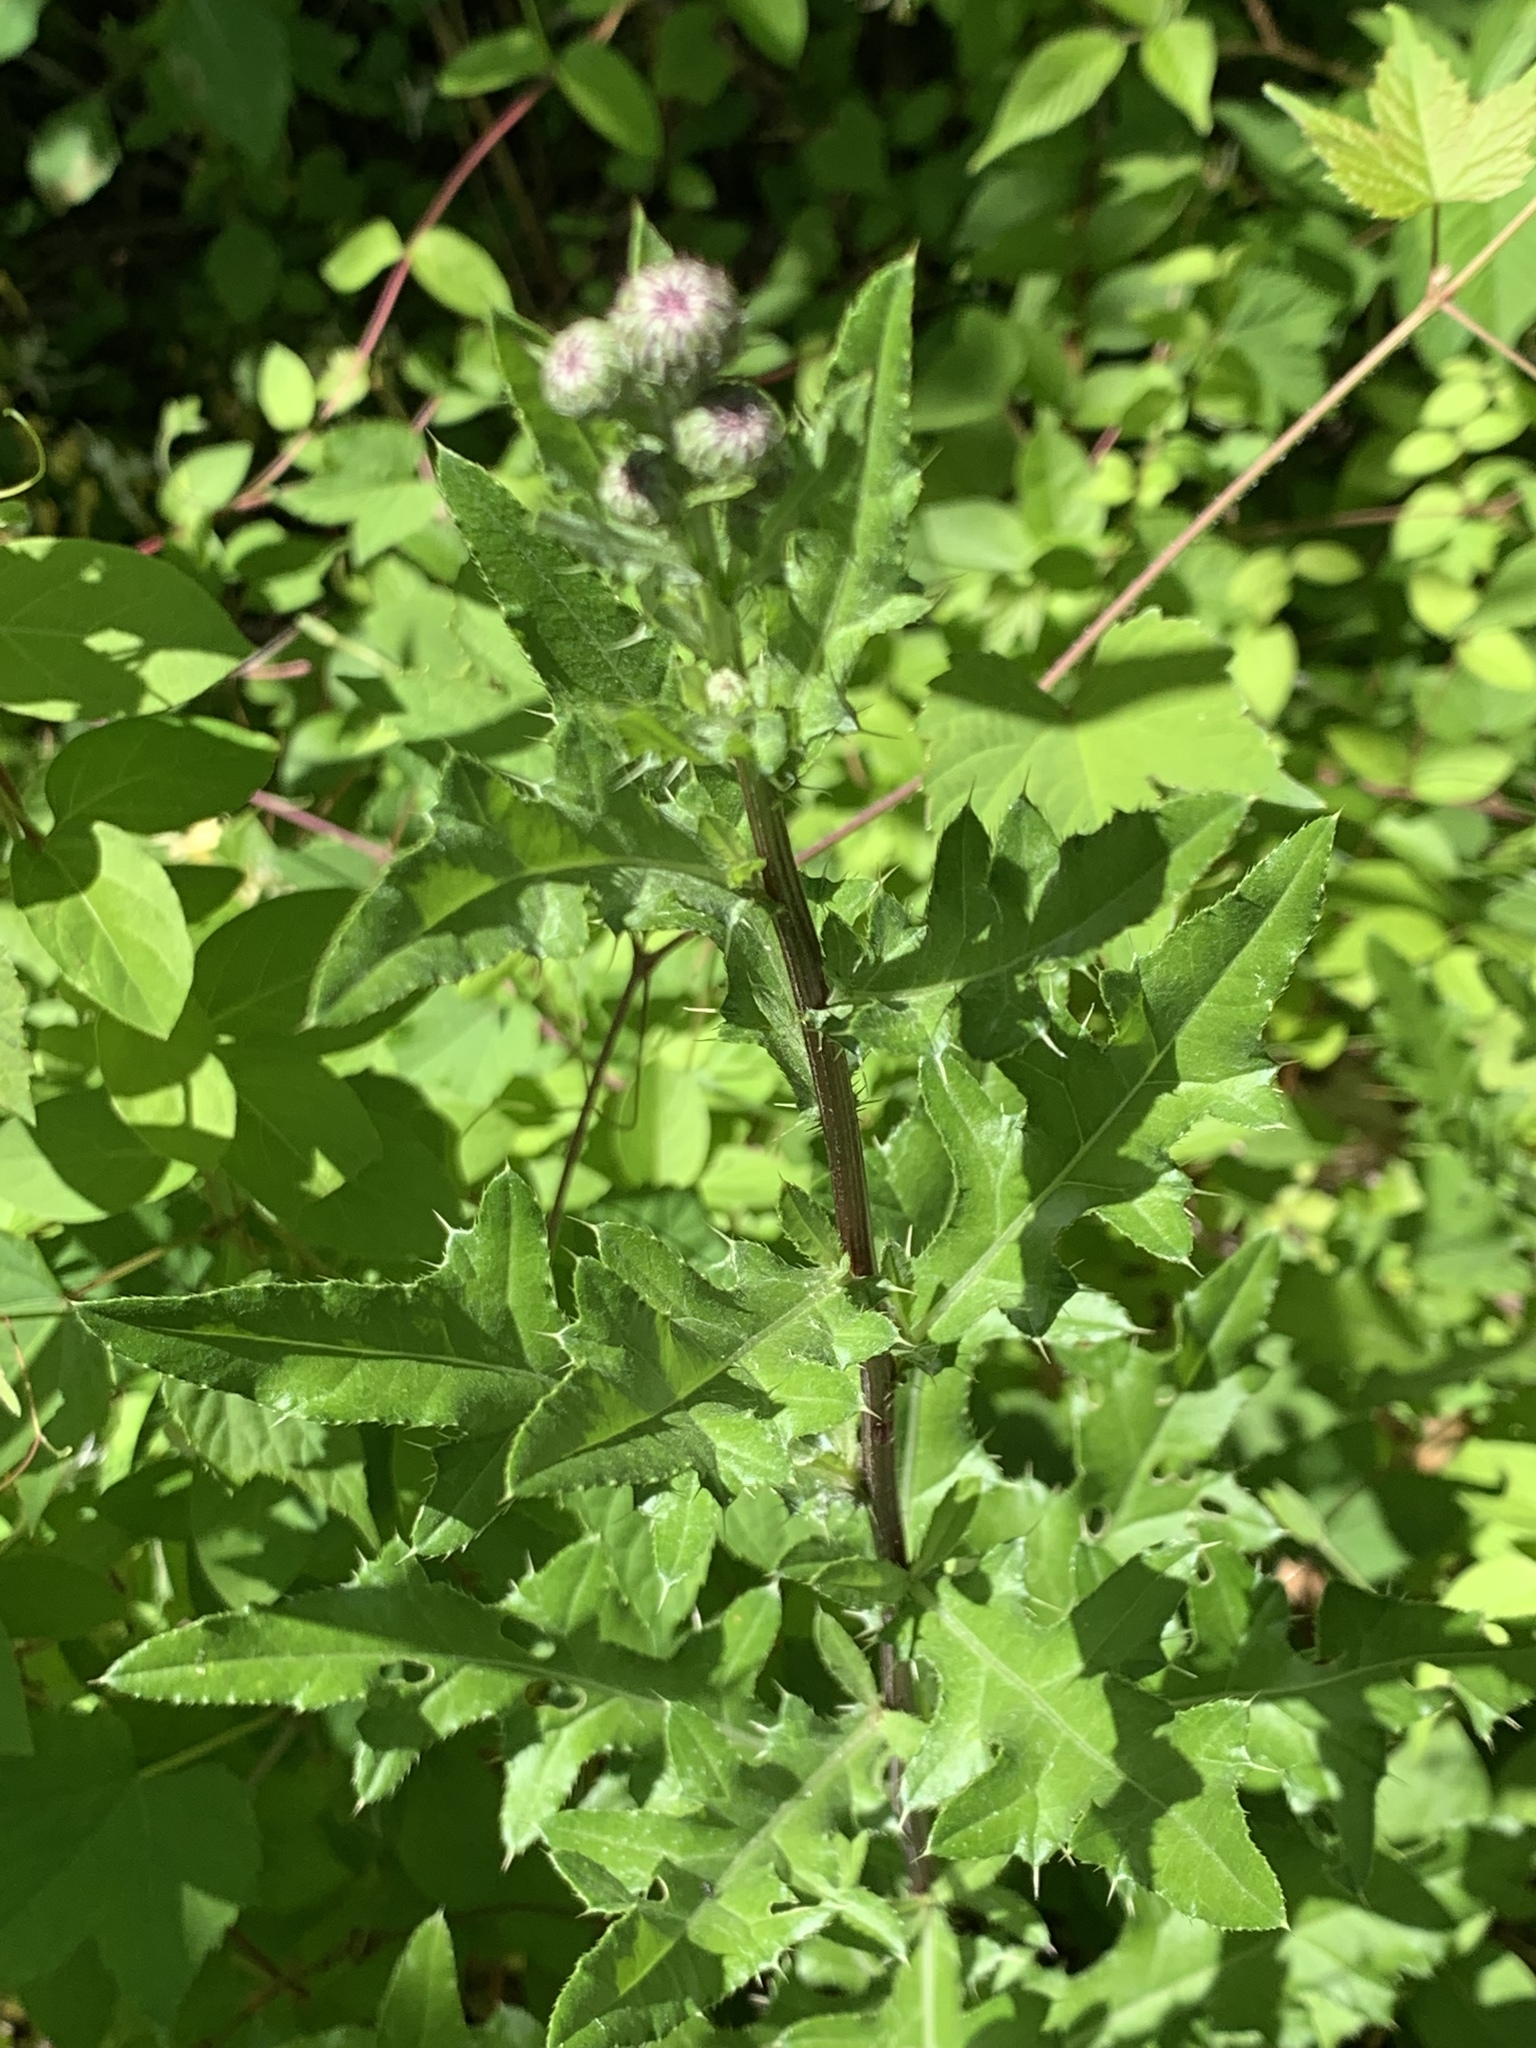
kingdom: Plantae
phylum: Tracheophyta
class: Magnoliopsida
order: Asterales
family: Asteraceae
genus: Cirsium
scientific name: Cirsium arvense
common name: Creeping thistle
